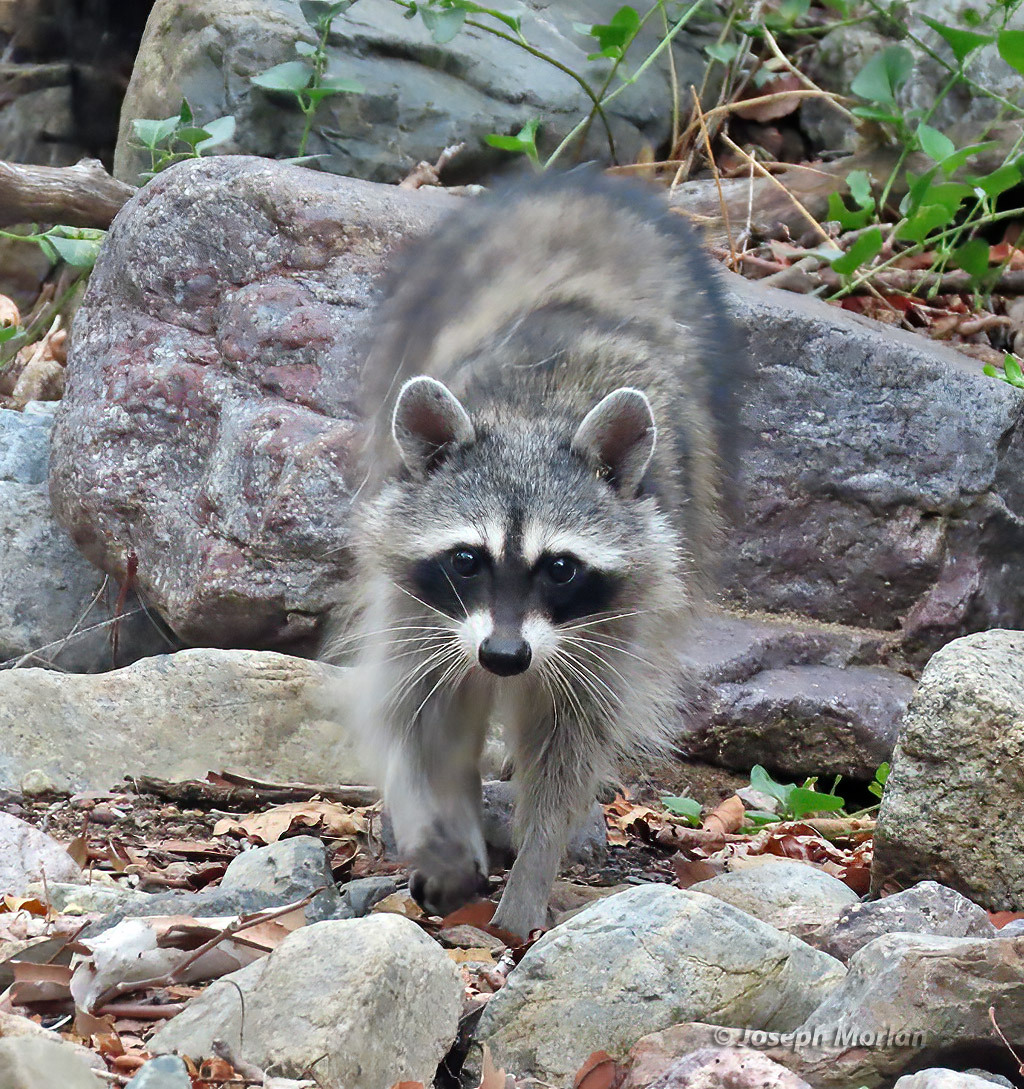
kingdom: Animalia
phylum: Chordata
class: Mammalia
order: Carnivora
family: Procyonidae
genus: Procyon
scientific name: Procyon lotor
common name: Raccoon
